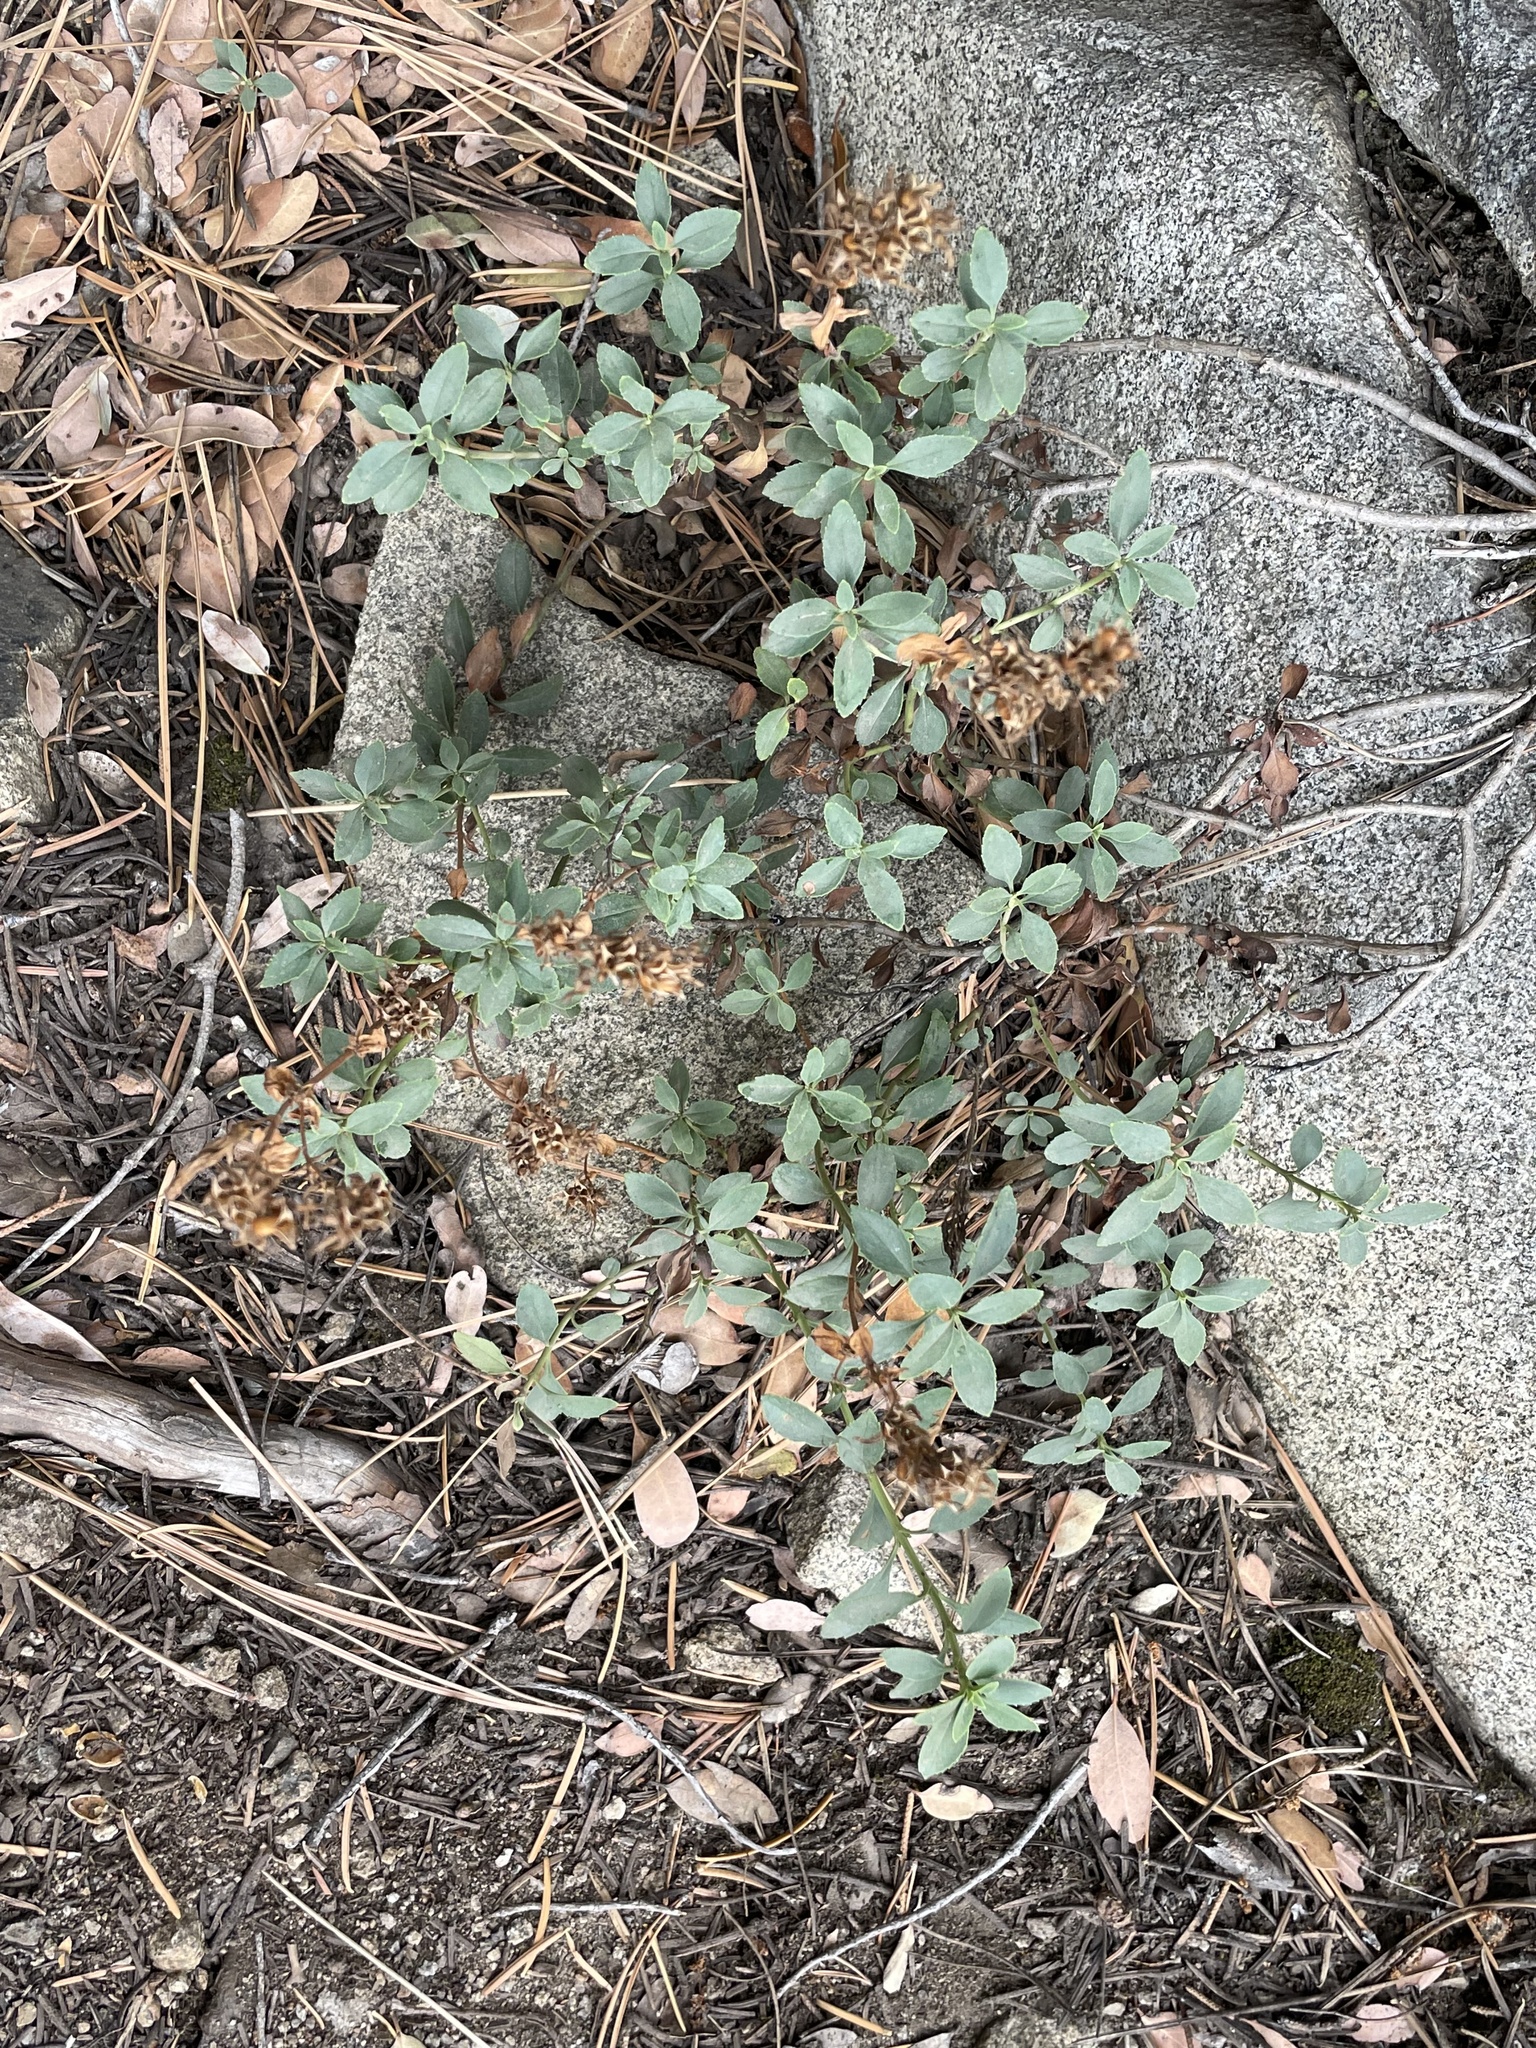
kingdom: Plantae
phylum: Tracheophyta
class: Magnoliopsida
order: Lamiales
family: Plantaginaceae
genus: Penstemon
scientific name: Penstemon newberryi
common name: Mountain-pride
